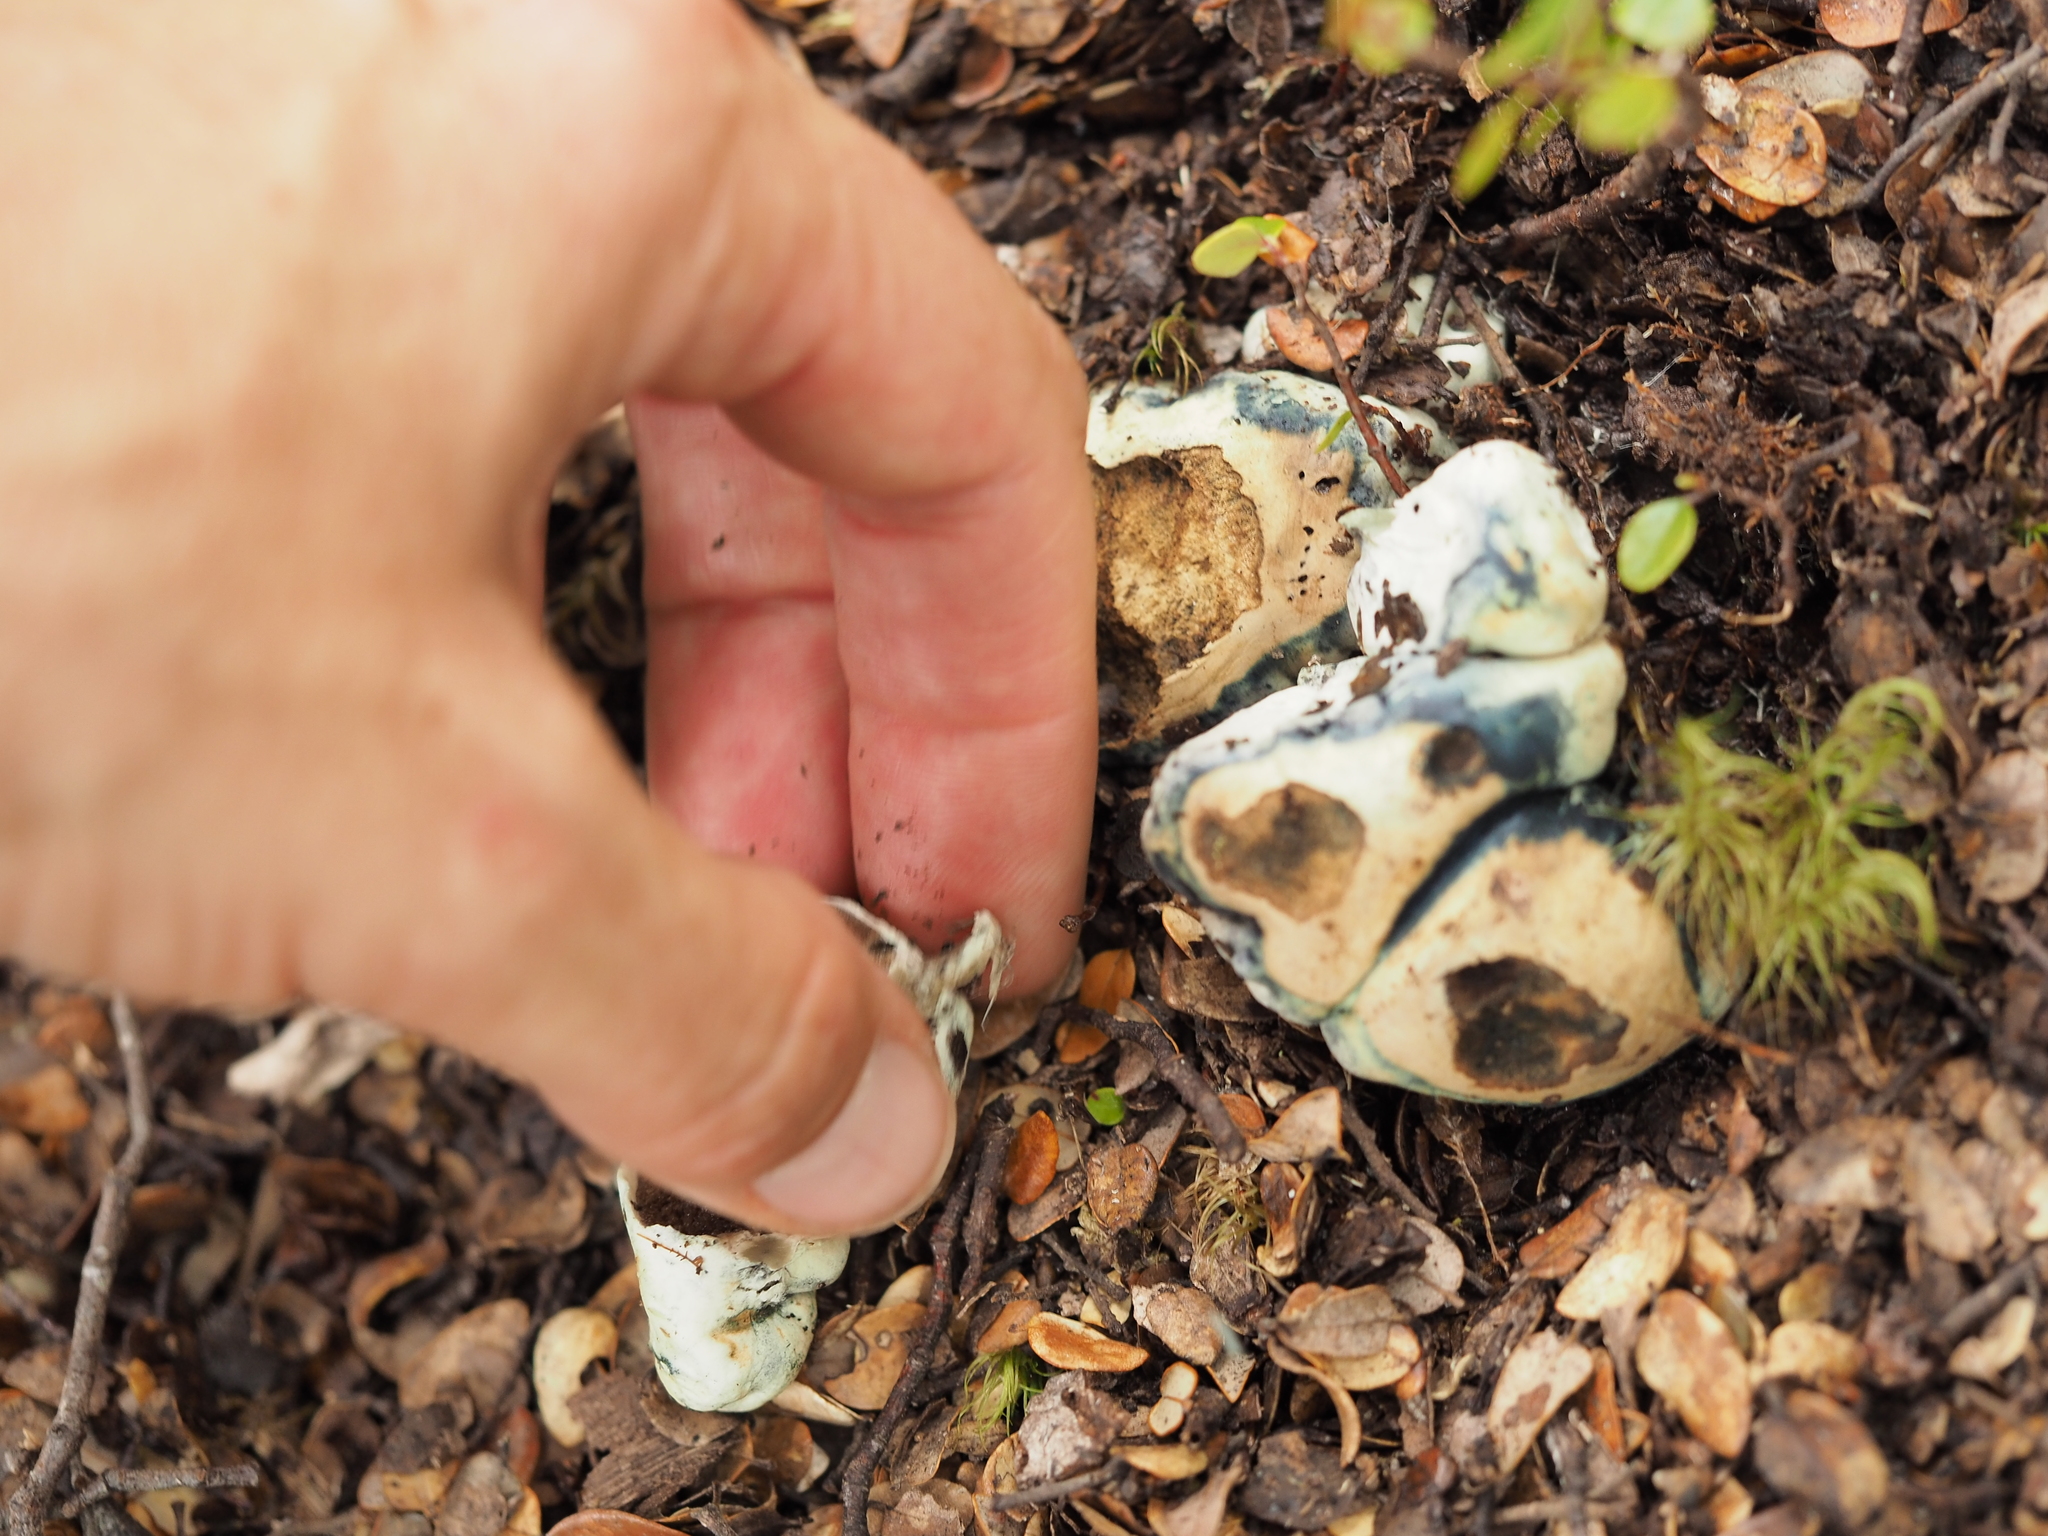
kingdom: Fungi
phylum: Basidiomycota
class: Agaricomycetes
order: Boletales
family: Boletaceae
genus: Leccinum
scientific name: Leccinum pachyderme
